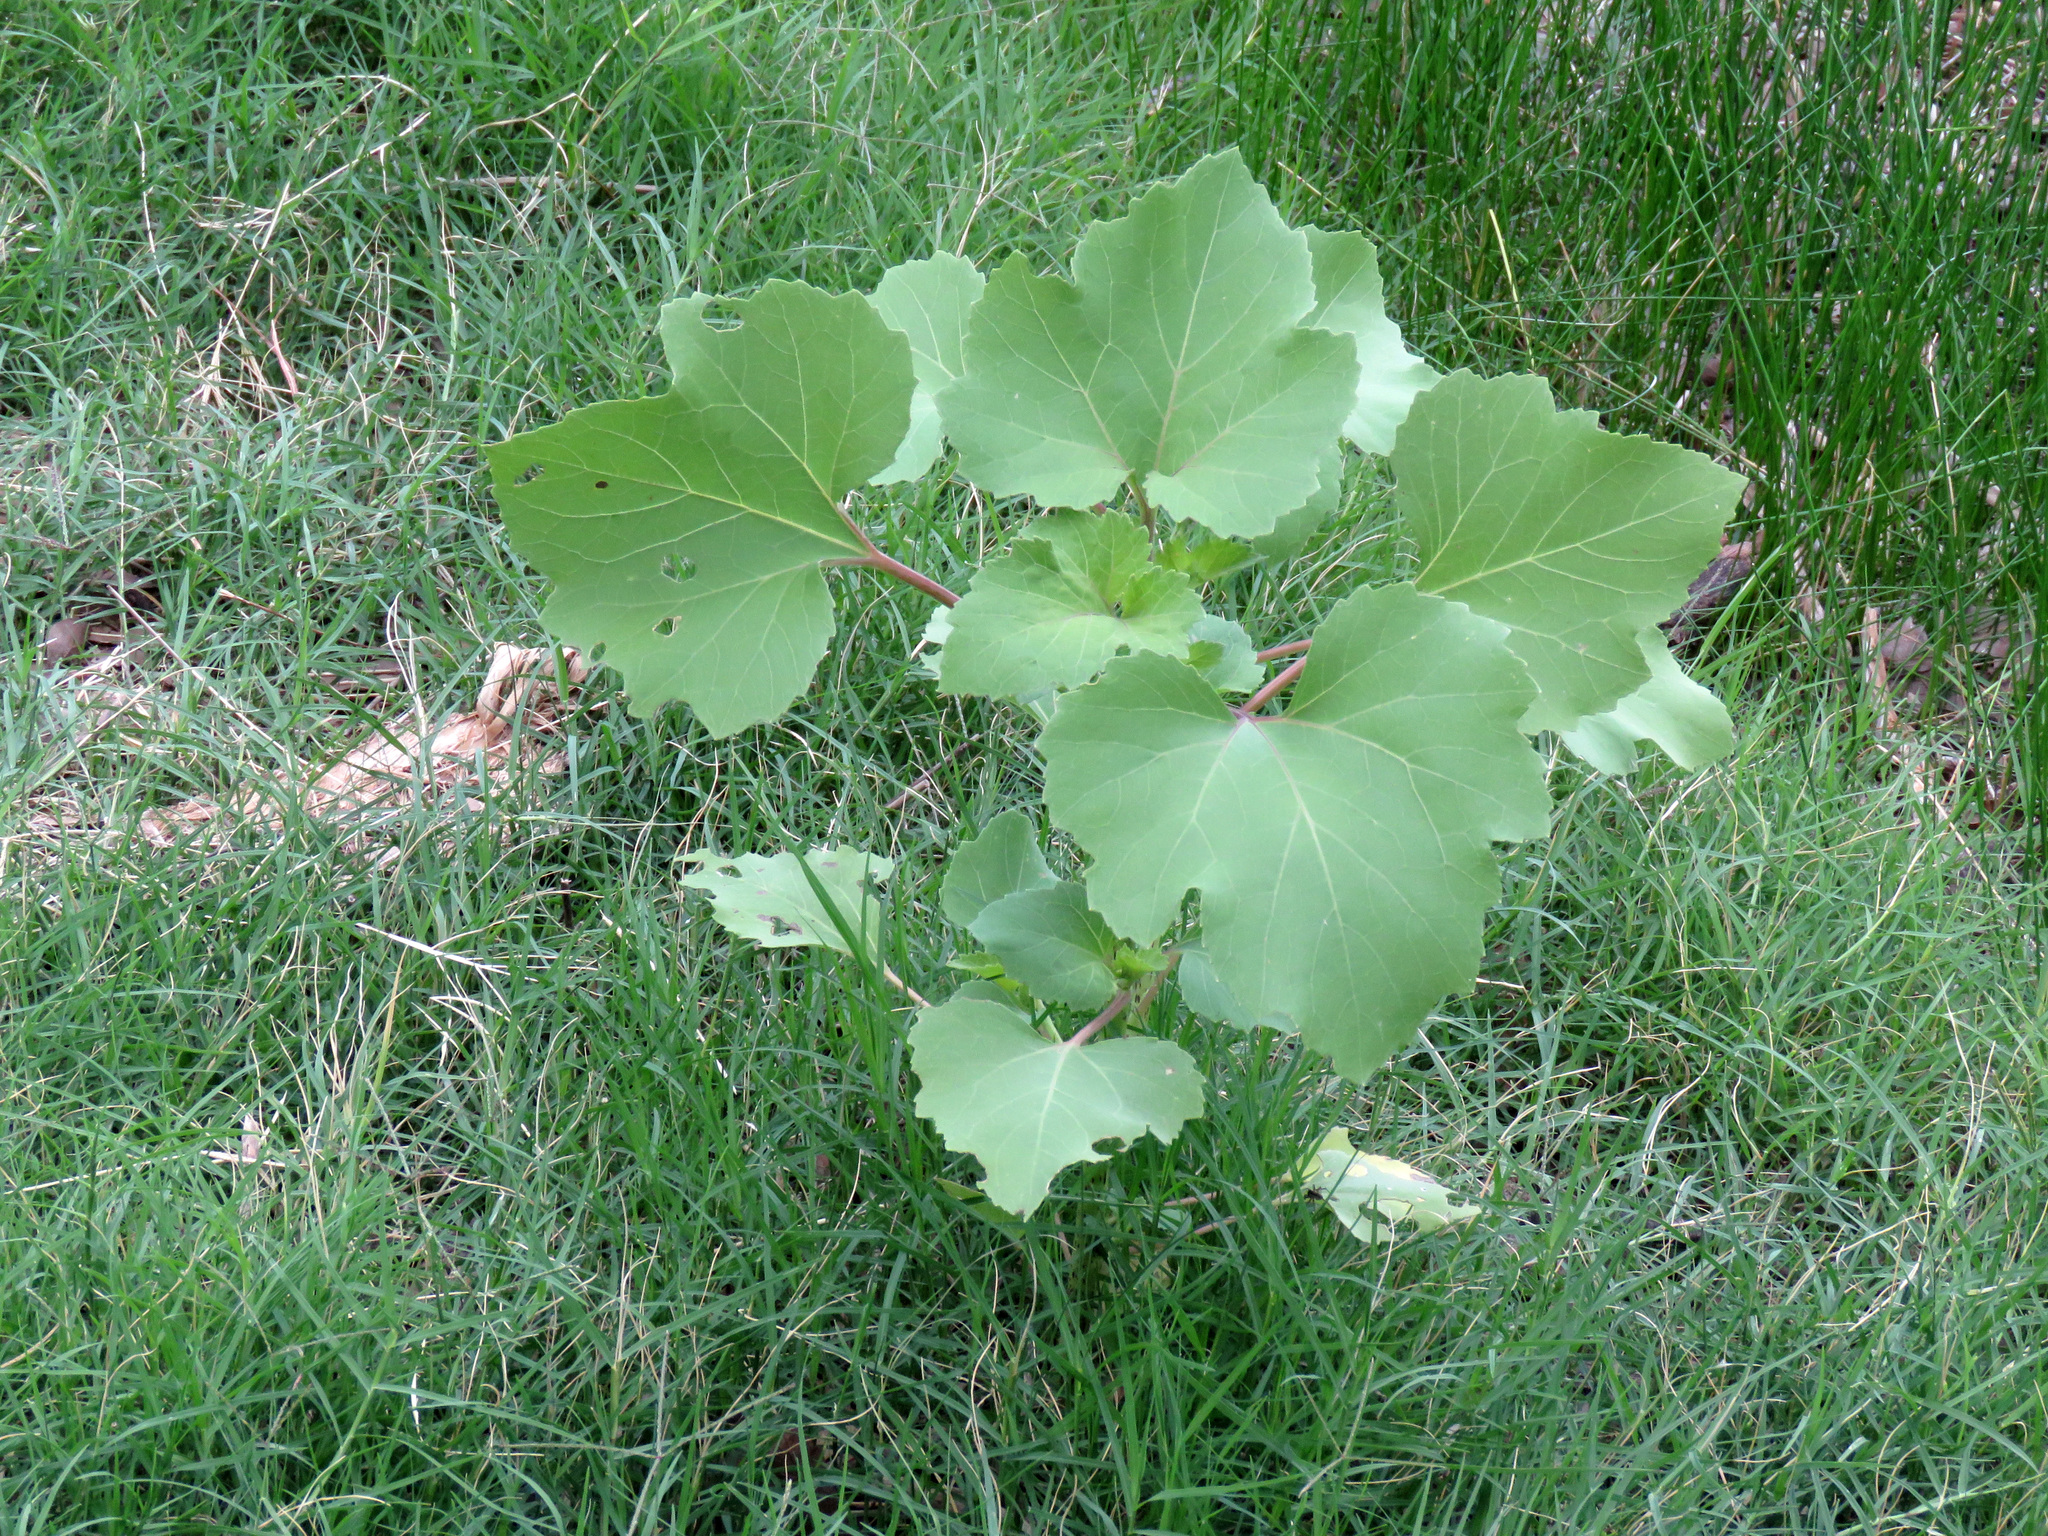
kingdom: Plantae
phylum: Tracheophyta
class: Magnoliopsida
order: Asterales
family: Asteraceae
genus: Xanthium
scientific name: Xanthium strumarium
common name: Rough cocklebur
